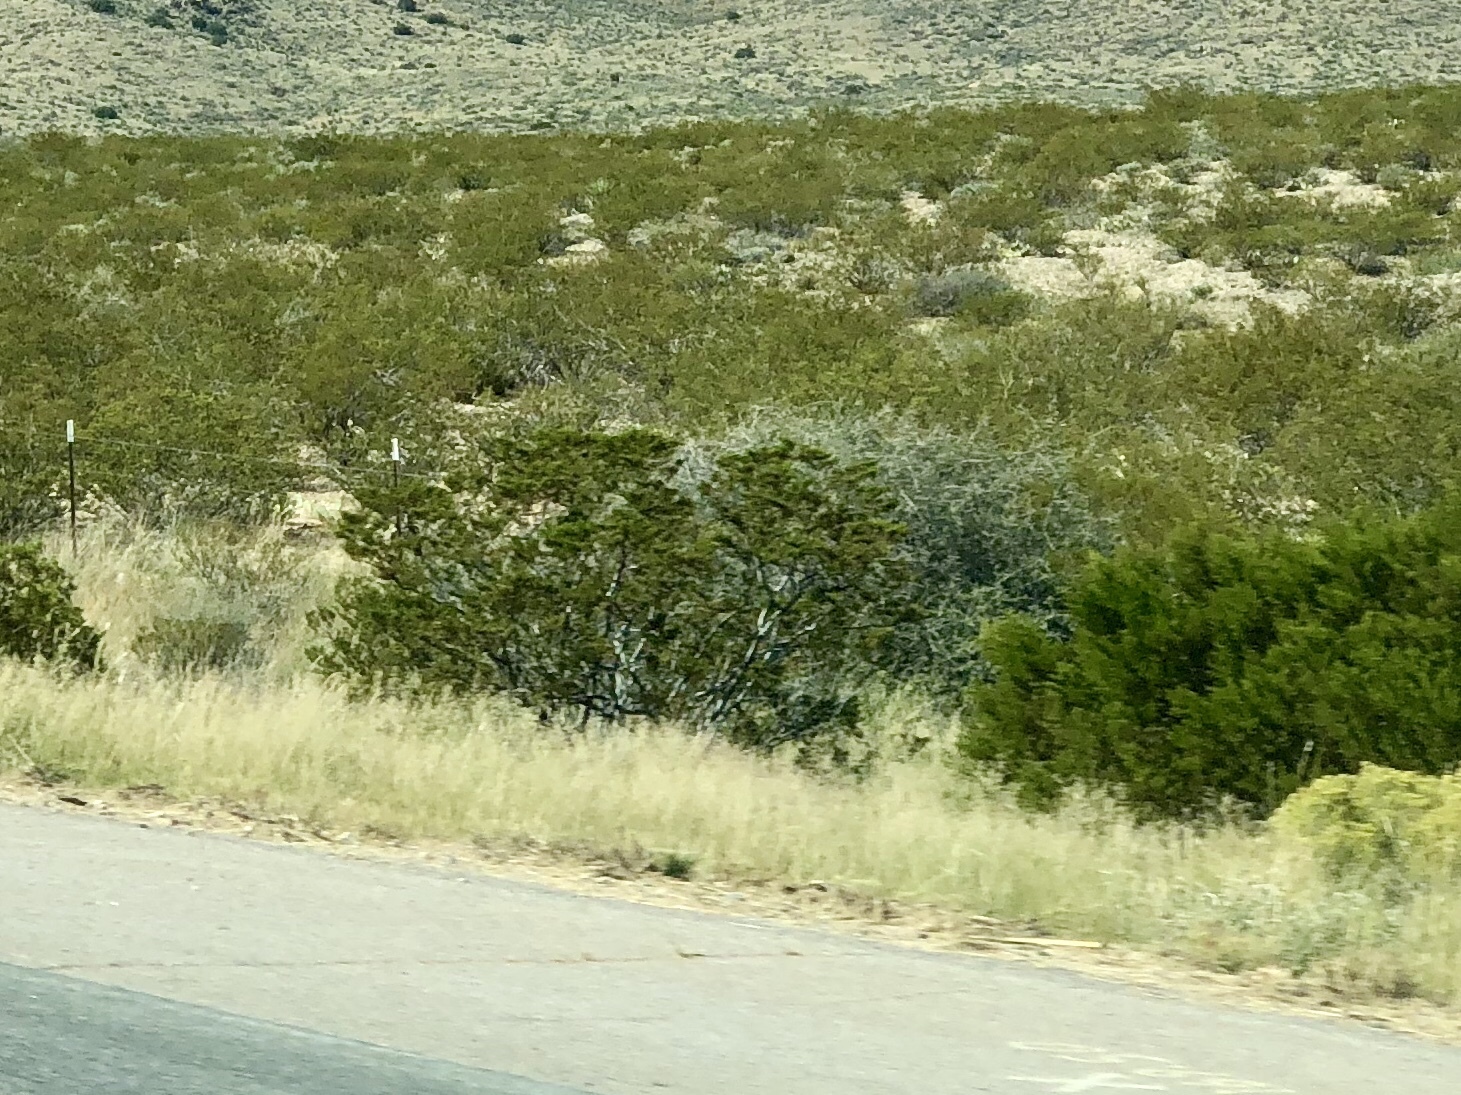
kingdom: Plantae
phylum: Tracheophyta
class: Magnoliopsida
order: Zygophyllales
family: Zygophyllaceae
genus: Larrea
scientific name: Larrea tridentata
